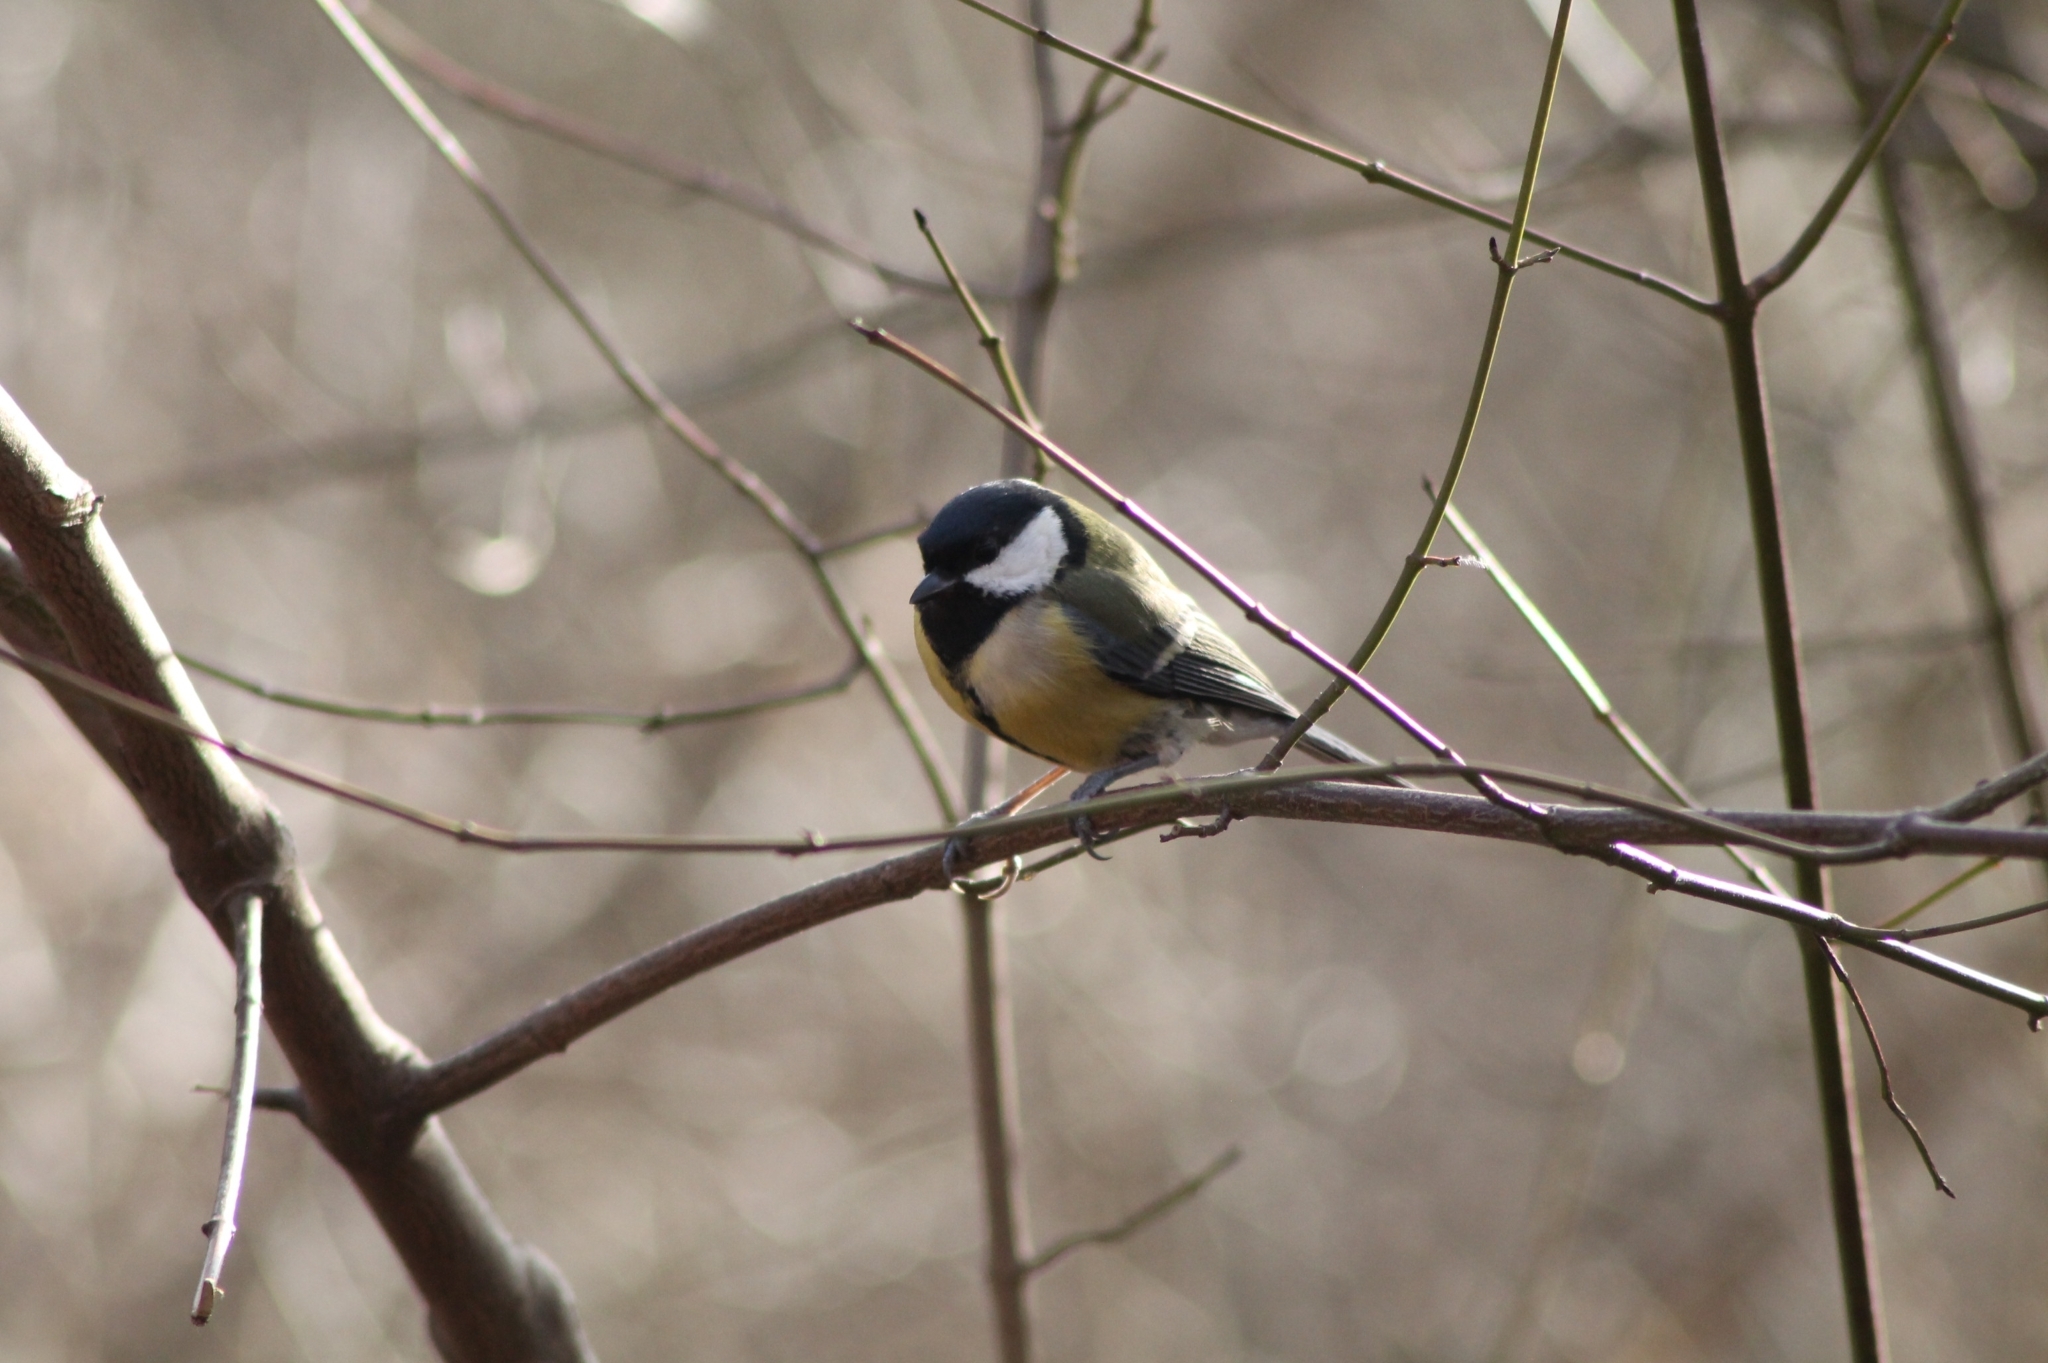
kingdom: Animalia
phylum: Chordata
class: Aves
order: Passeriformes
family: Paridae
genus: Parus
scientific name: Parus major
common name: Great tit
